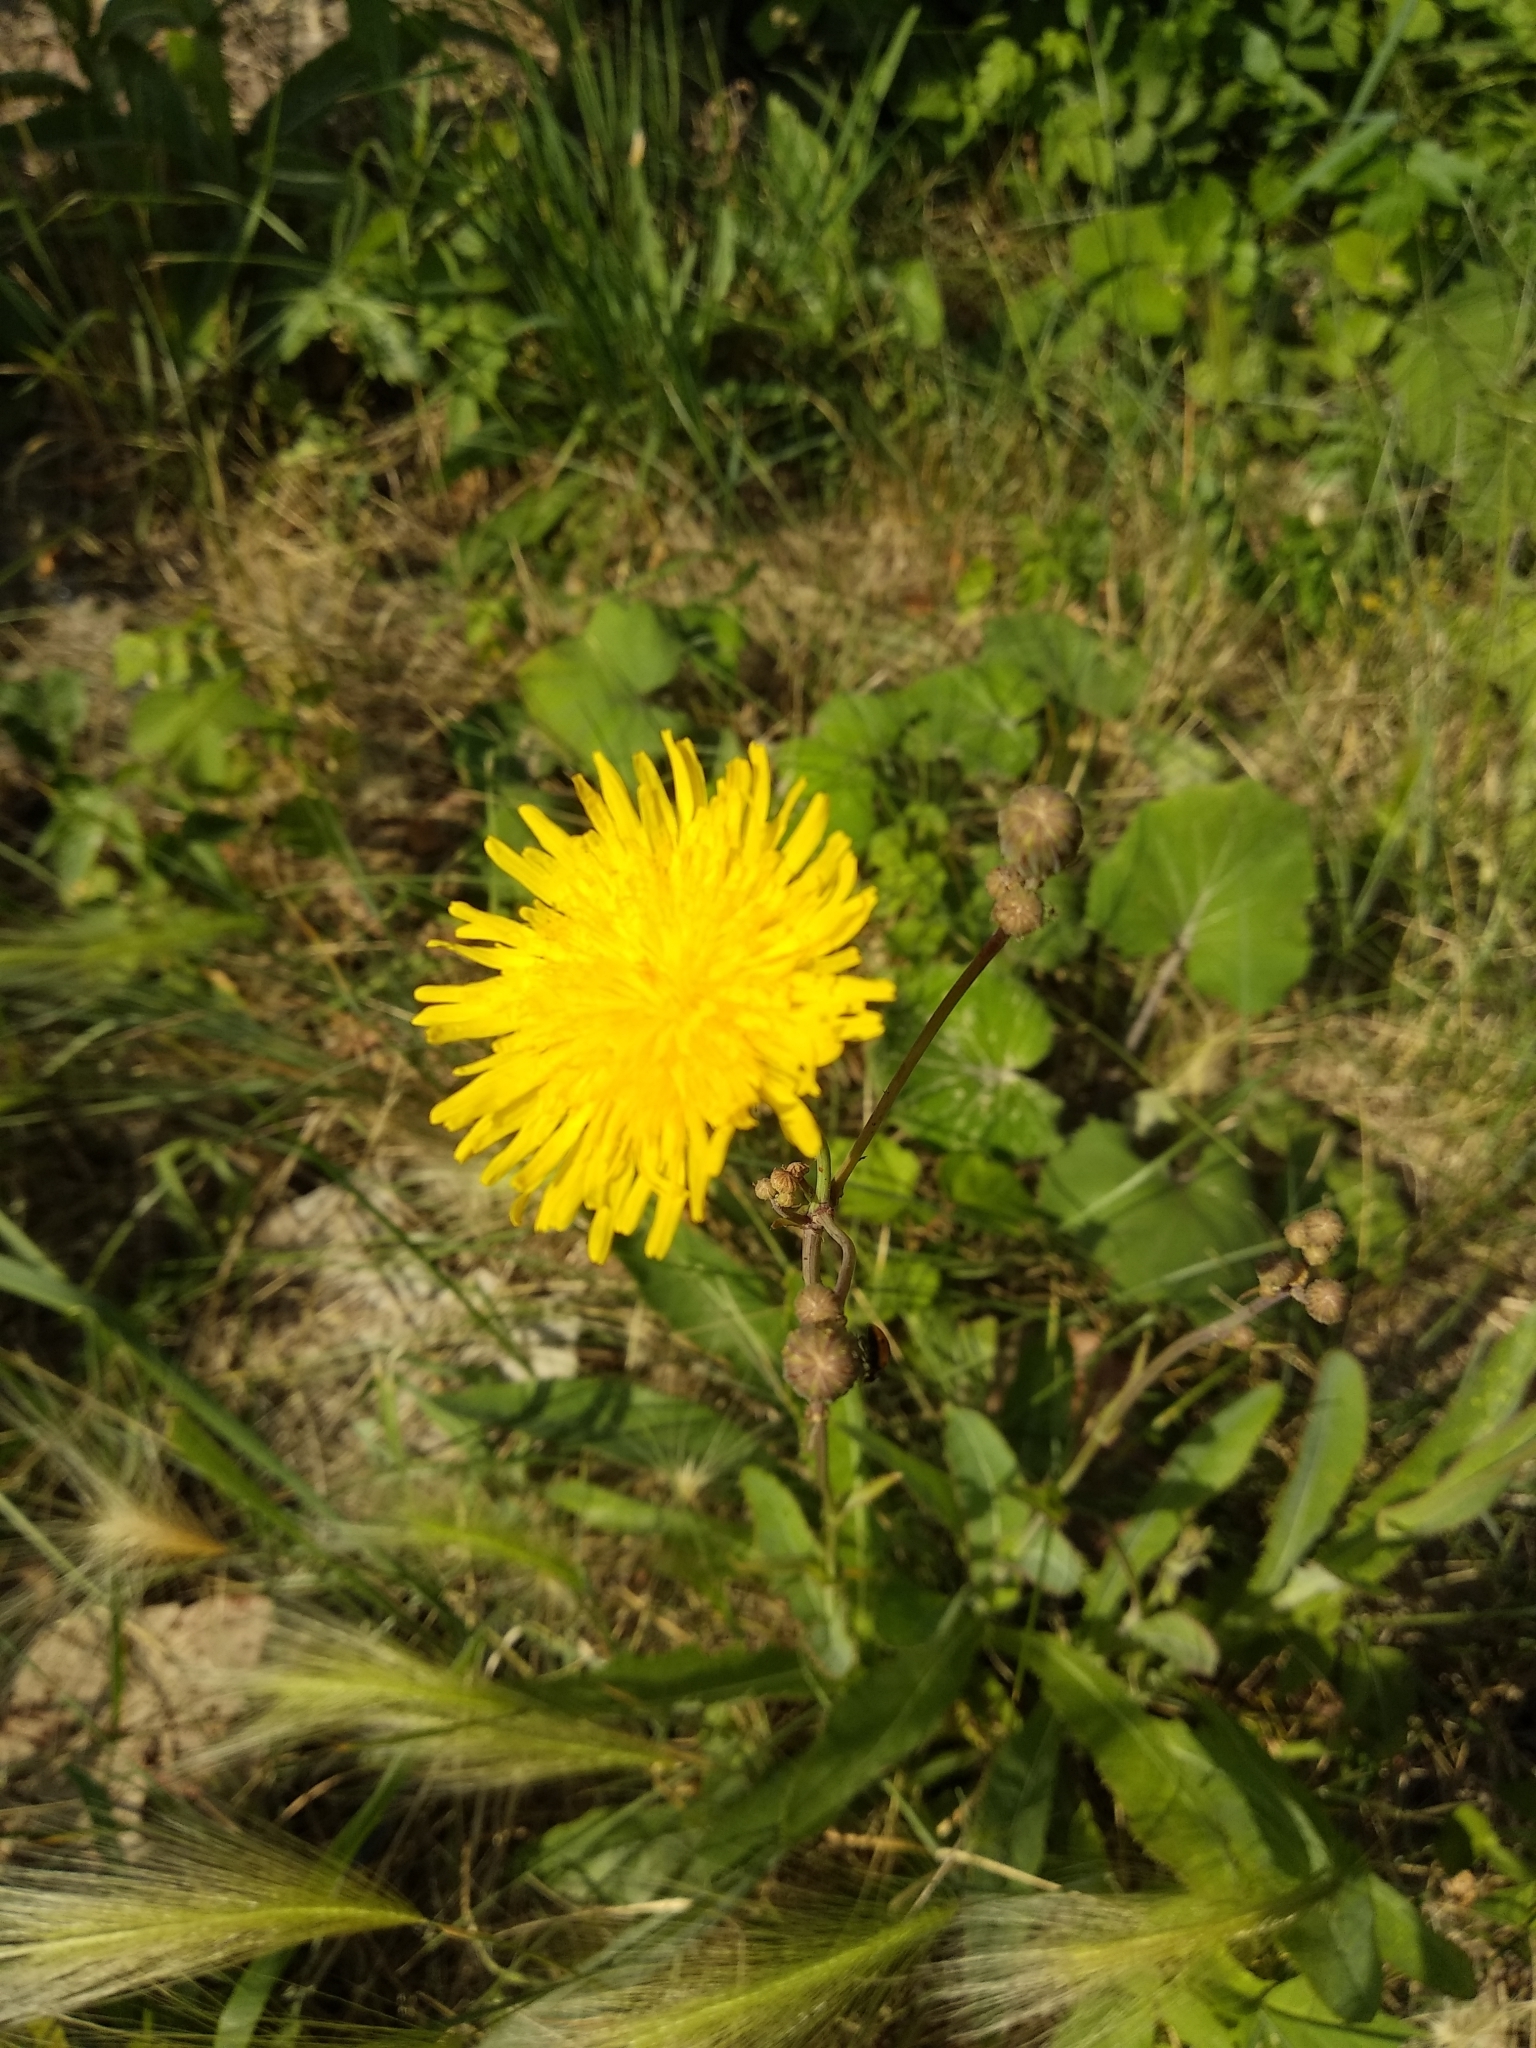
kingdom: Plantae
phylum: Tracheophyta
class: Magnoliopsida
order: Asterales
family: Asteraceae
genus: Sonchus
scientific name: Sonchus arvensis
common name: Perennial sow-thistle
